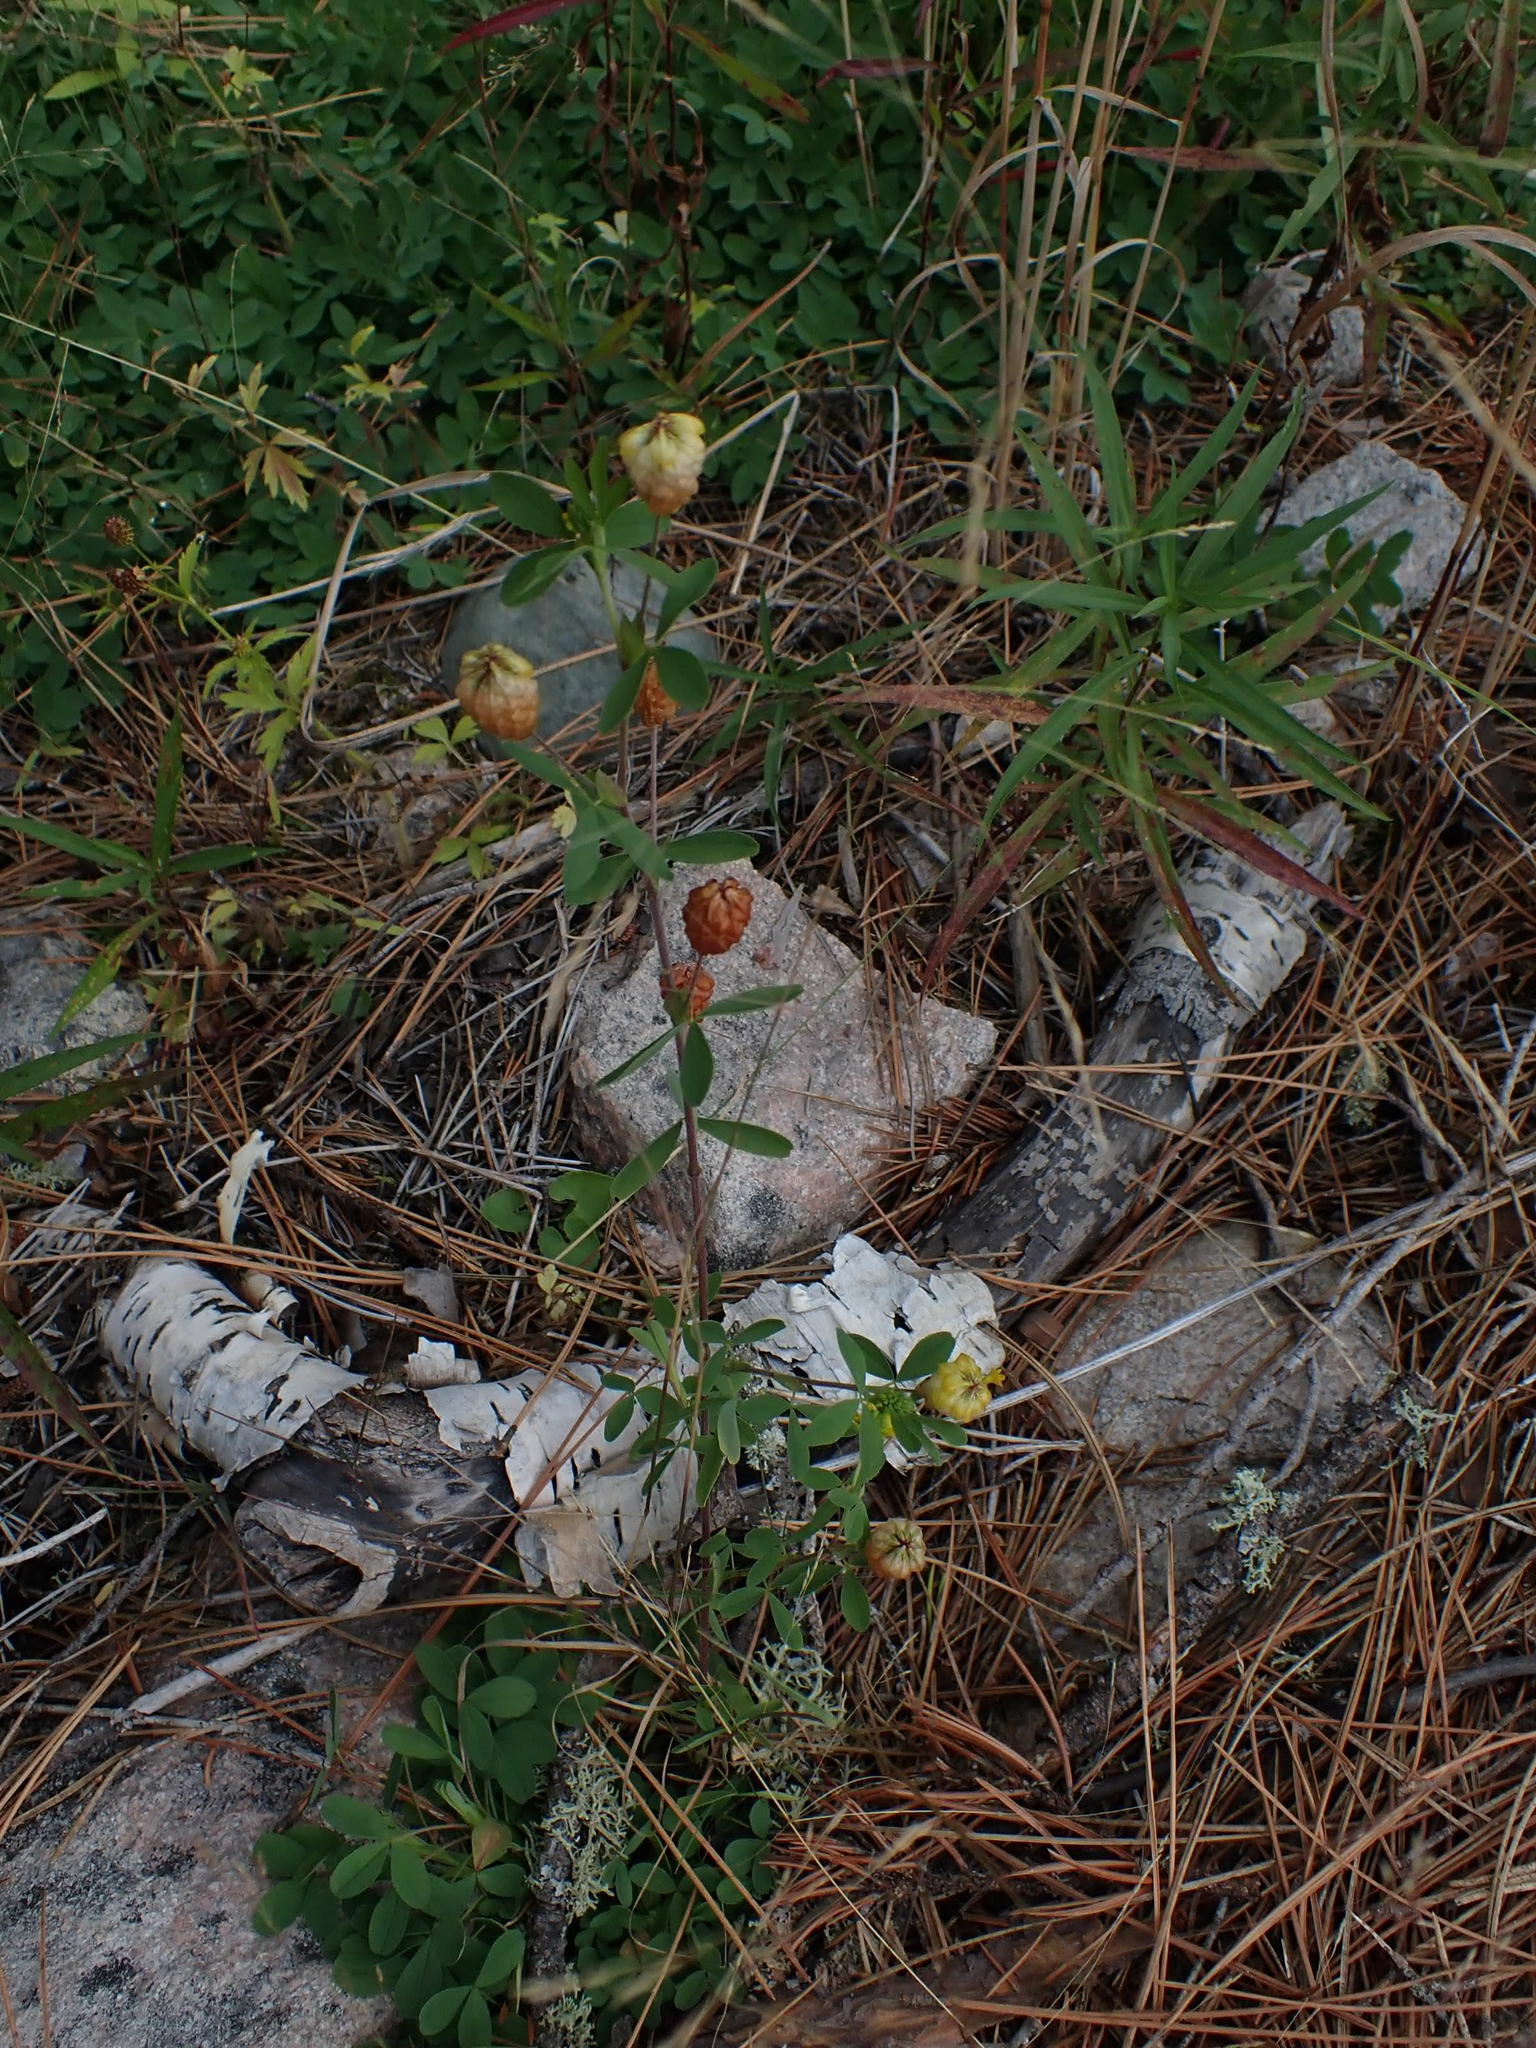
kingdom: Plantae
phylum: Tracheophyta
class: Magnoliopsida
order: Fabales
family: Fabaceae
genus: Trifolium
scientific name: Trifolium aureum
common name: Golden clover
